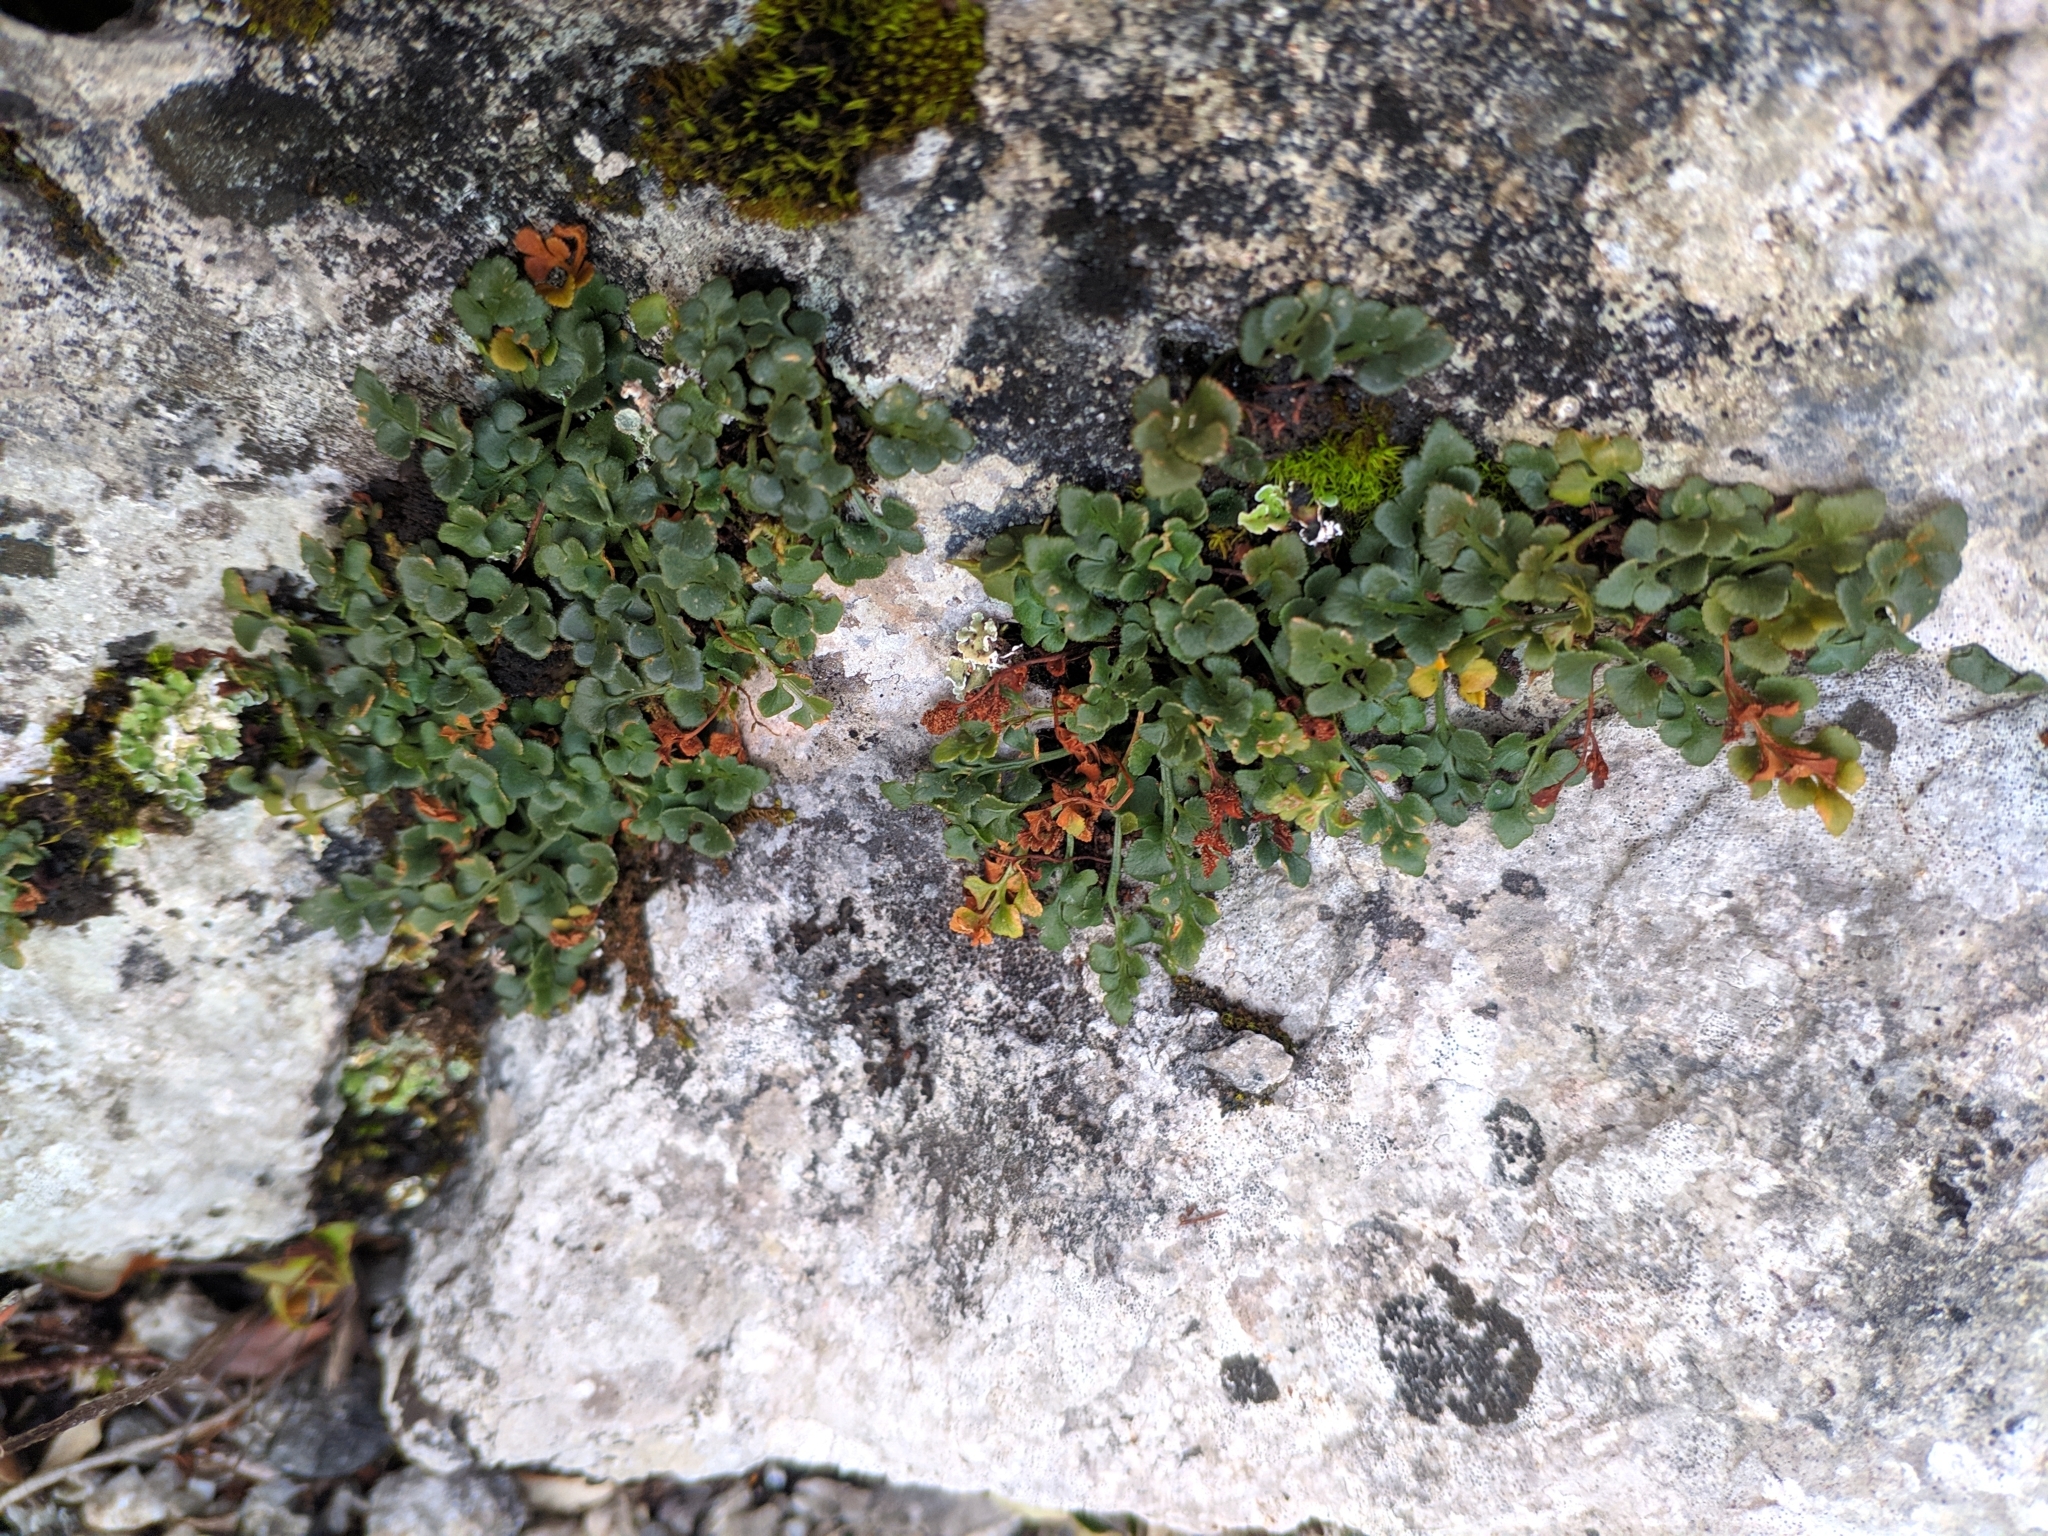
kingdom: Plantae
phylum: Tracheophyta
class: Polypodiopsida
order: Polypodiales
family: Aspleniaceae
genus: Asplenium
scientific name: Asplenium ruta-muraria
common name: Wall-rue
